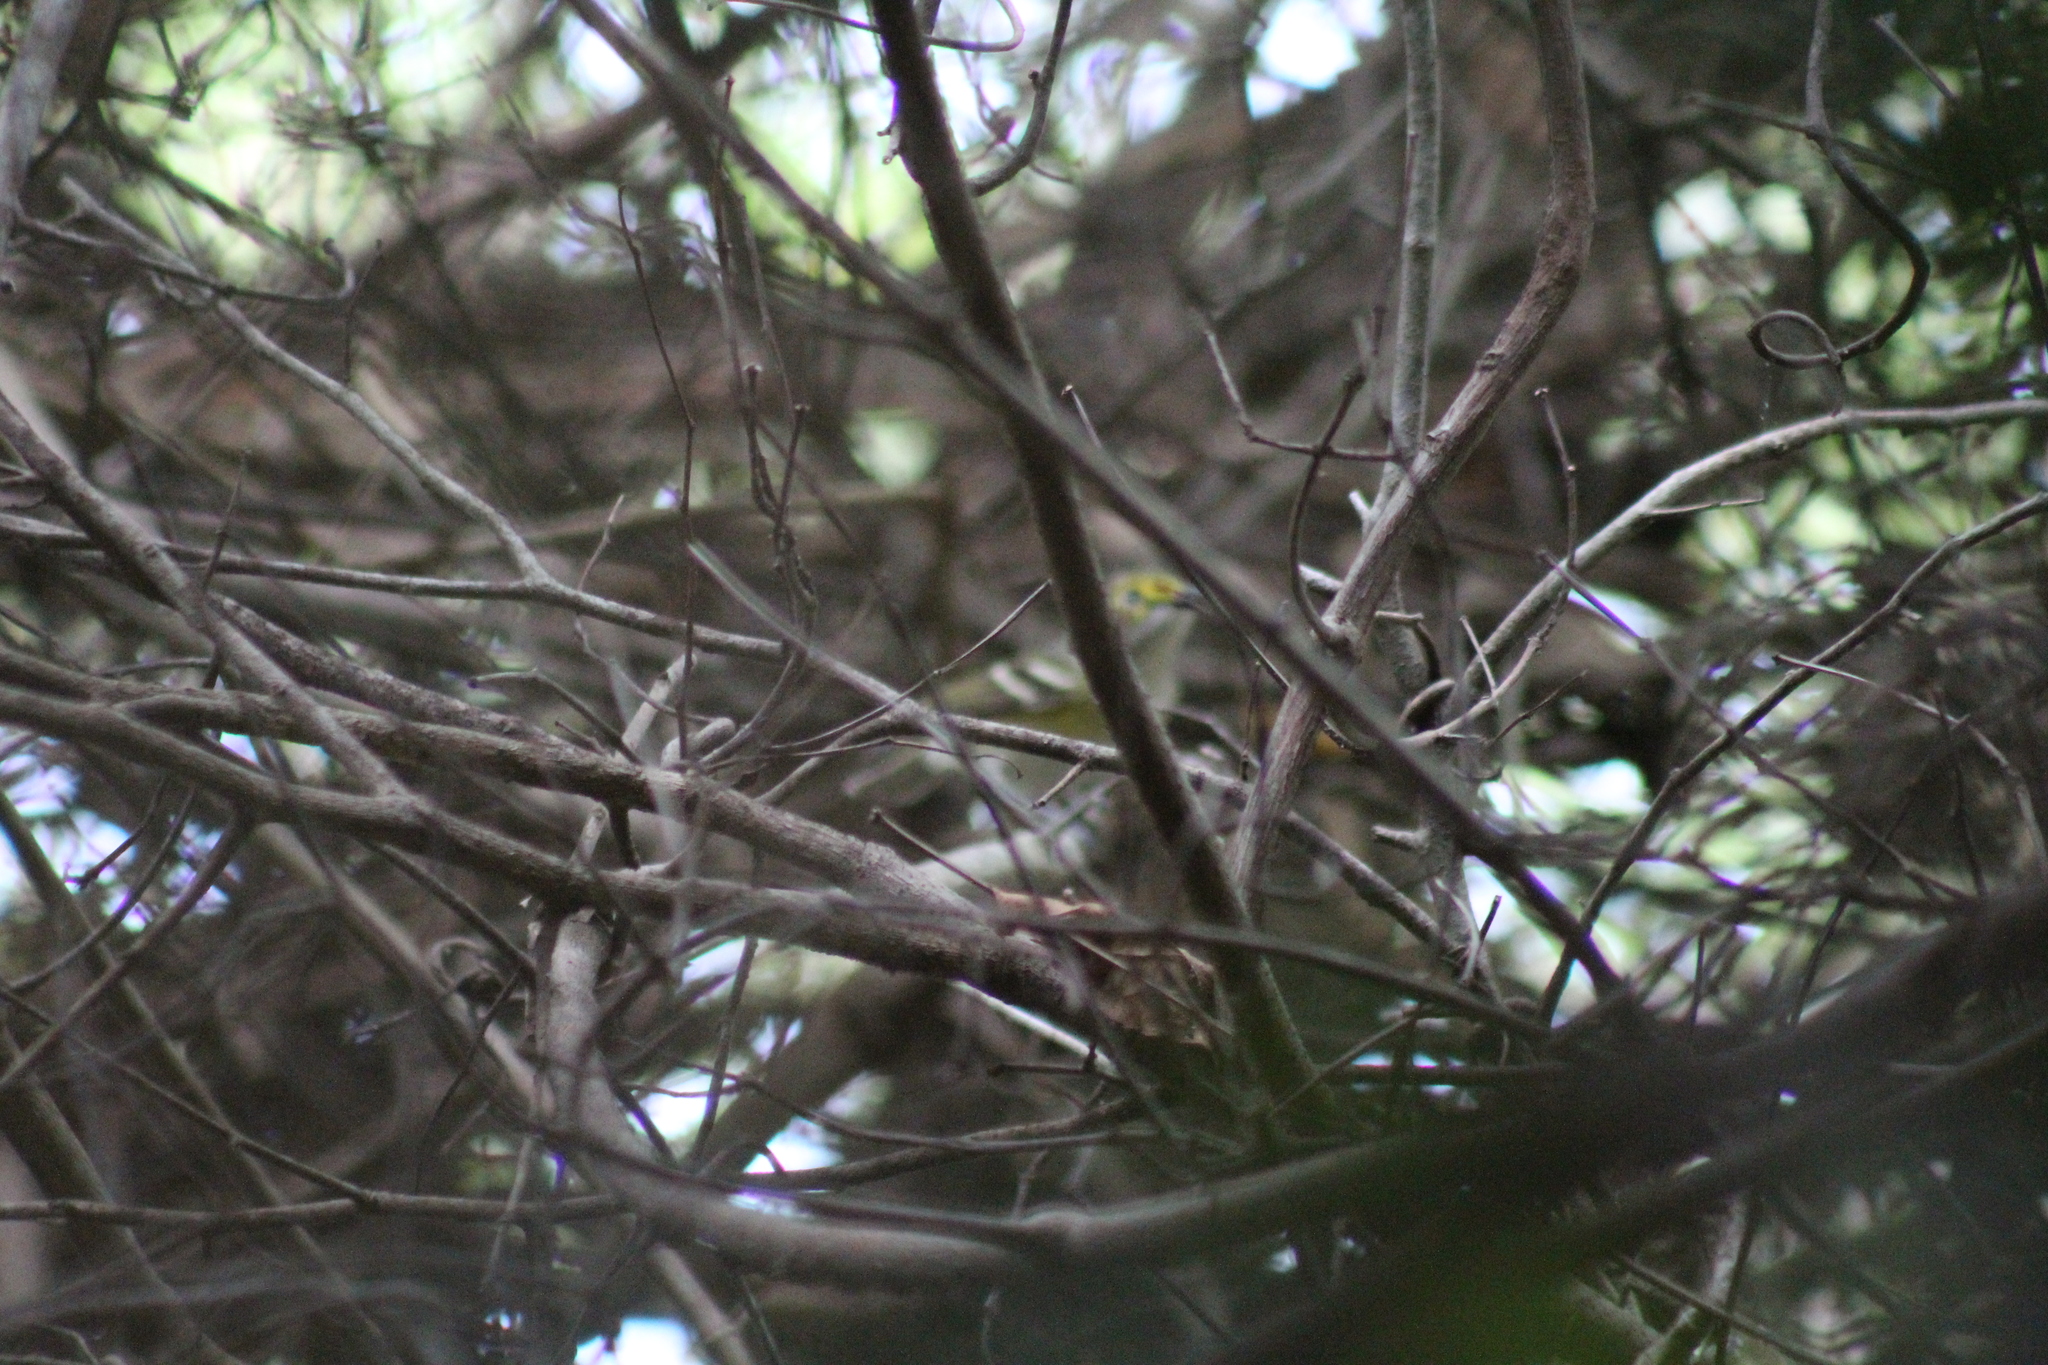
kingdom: Animalia
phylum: Chordata
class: Aves
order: Passeriformes
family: Vireonidae
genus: Vireo
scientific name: Vireo griseus
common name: White-eyed vireo
